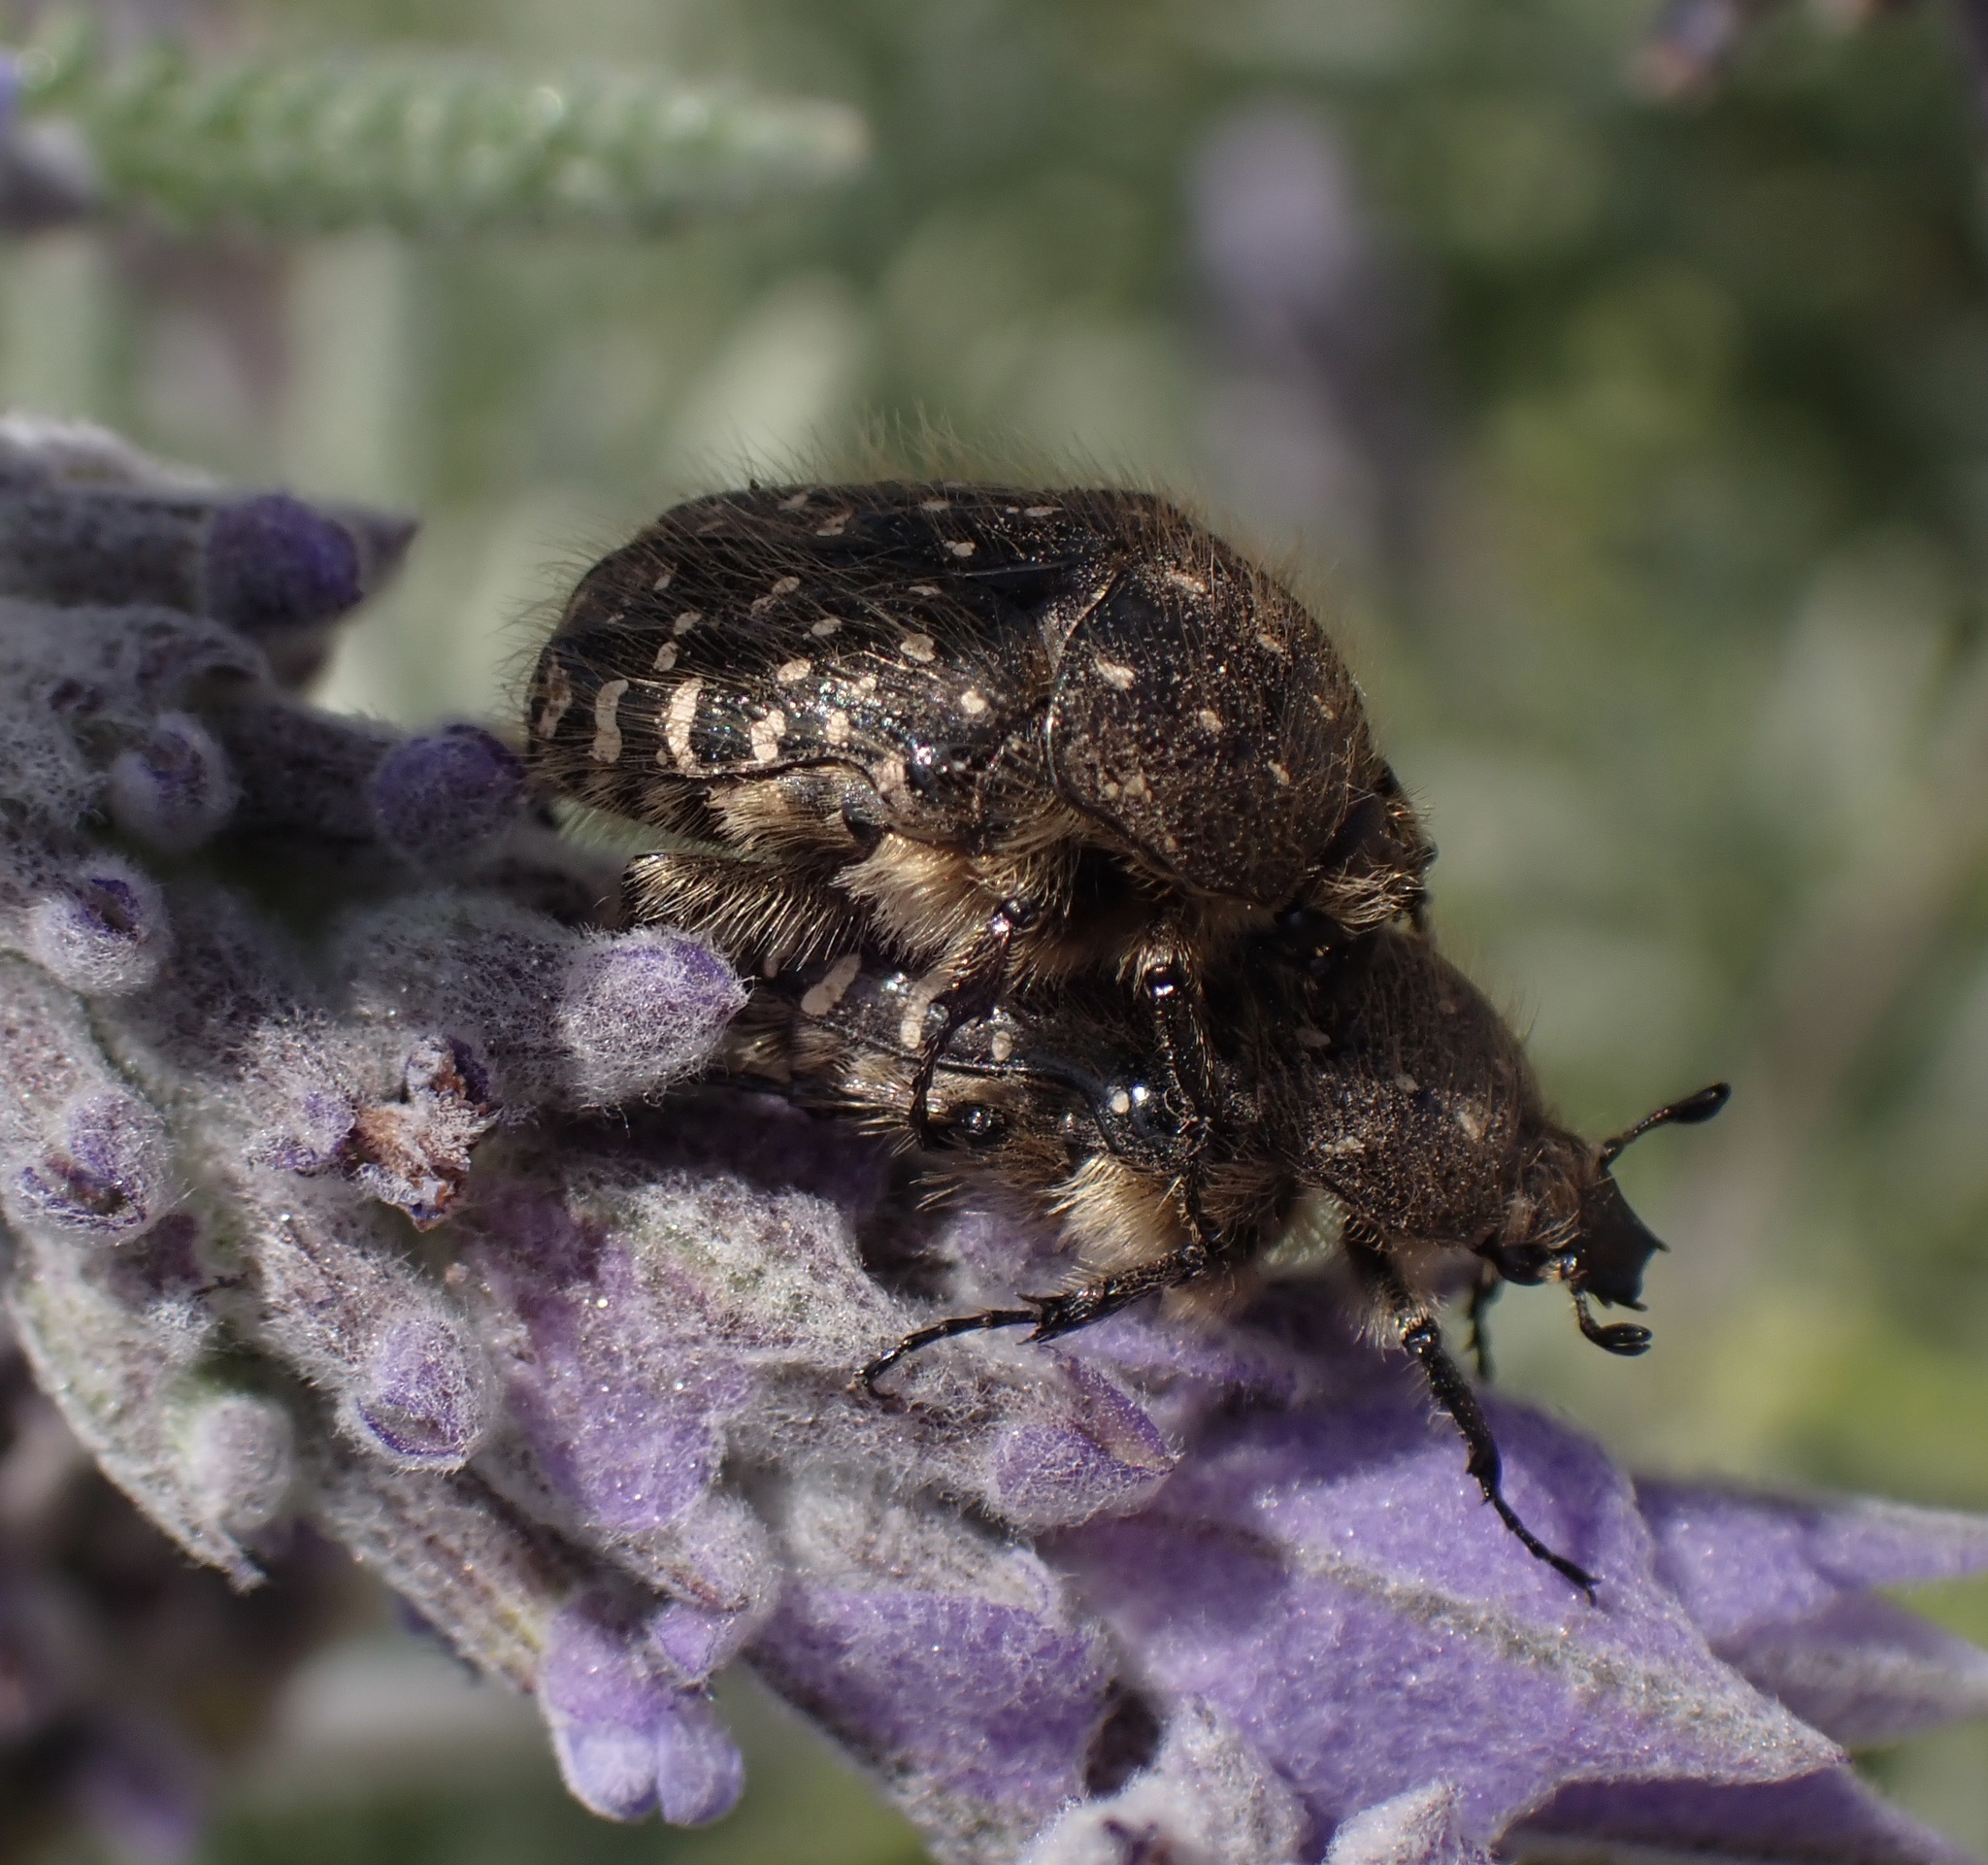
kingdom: Animalia
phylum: Arthropoda
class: Insecta
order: Coleoptera
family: Scarabaeidae
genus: Oxythyrea
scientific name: Oxythyrea funesta
